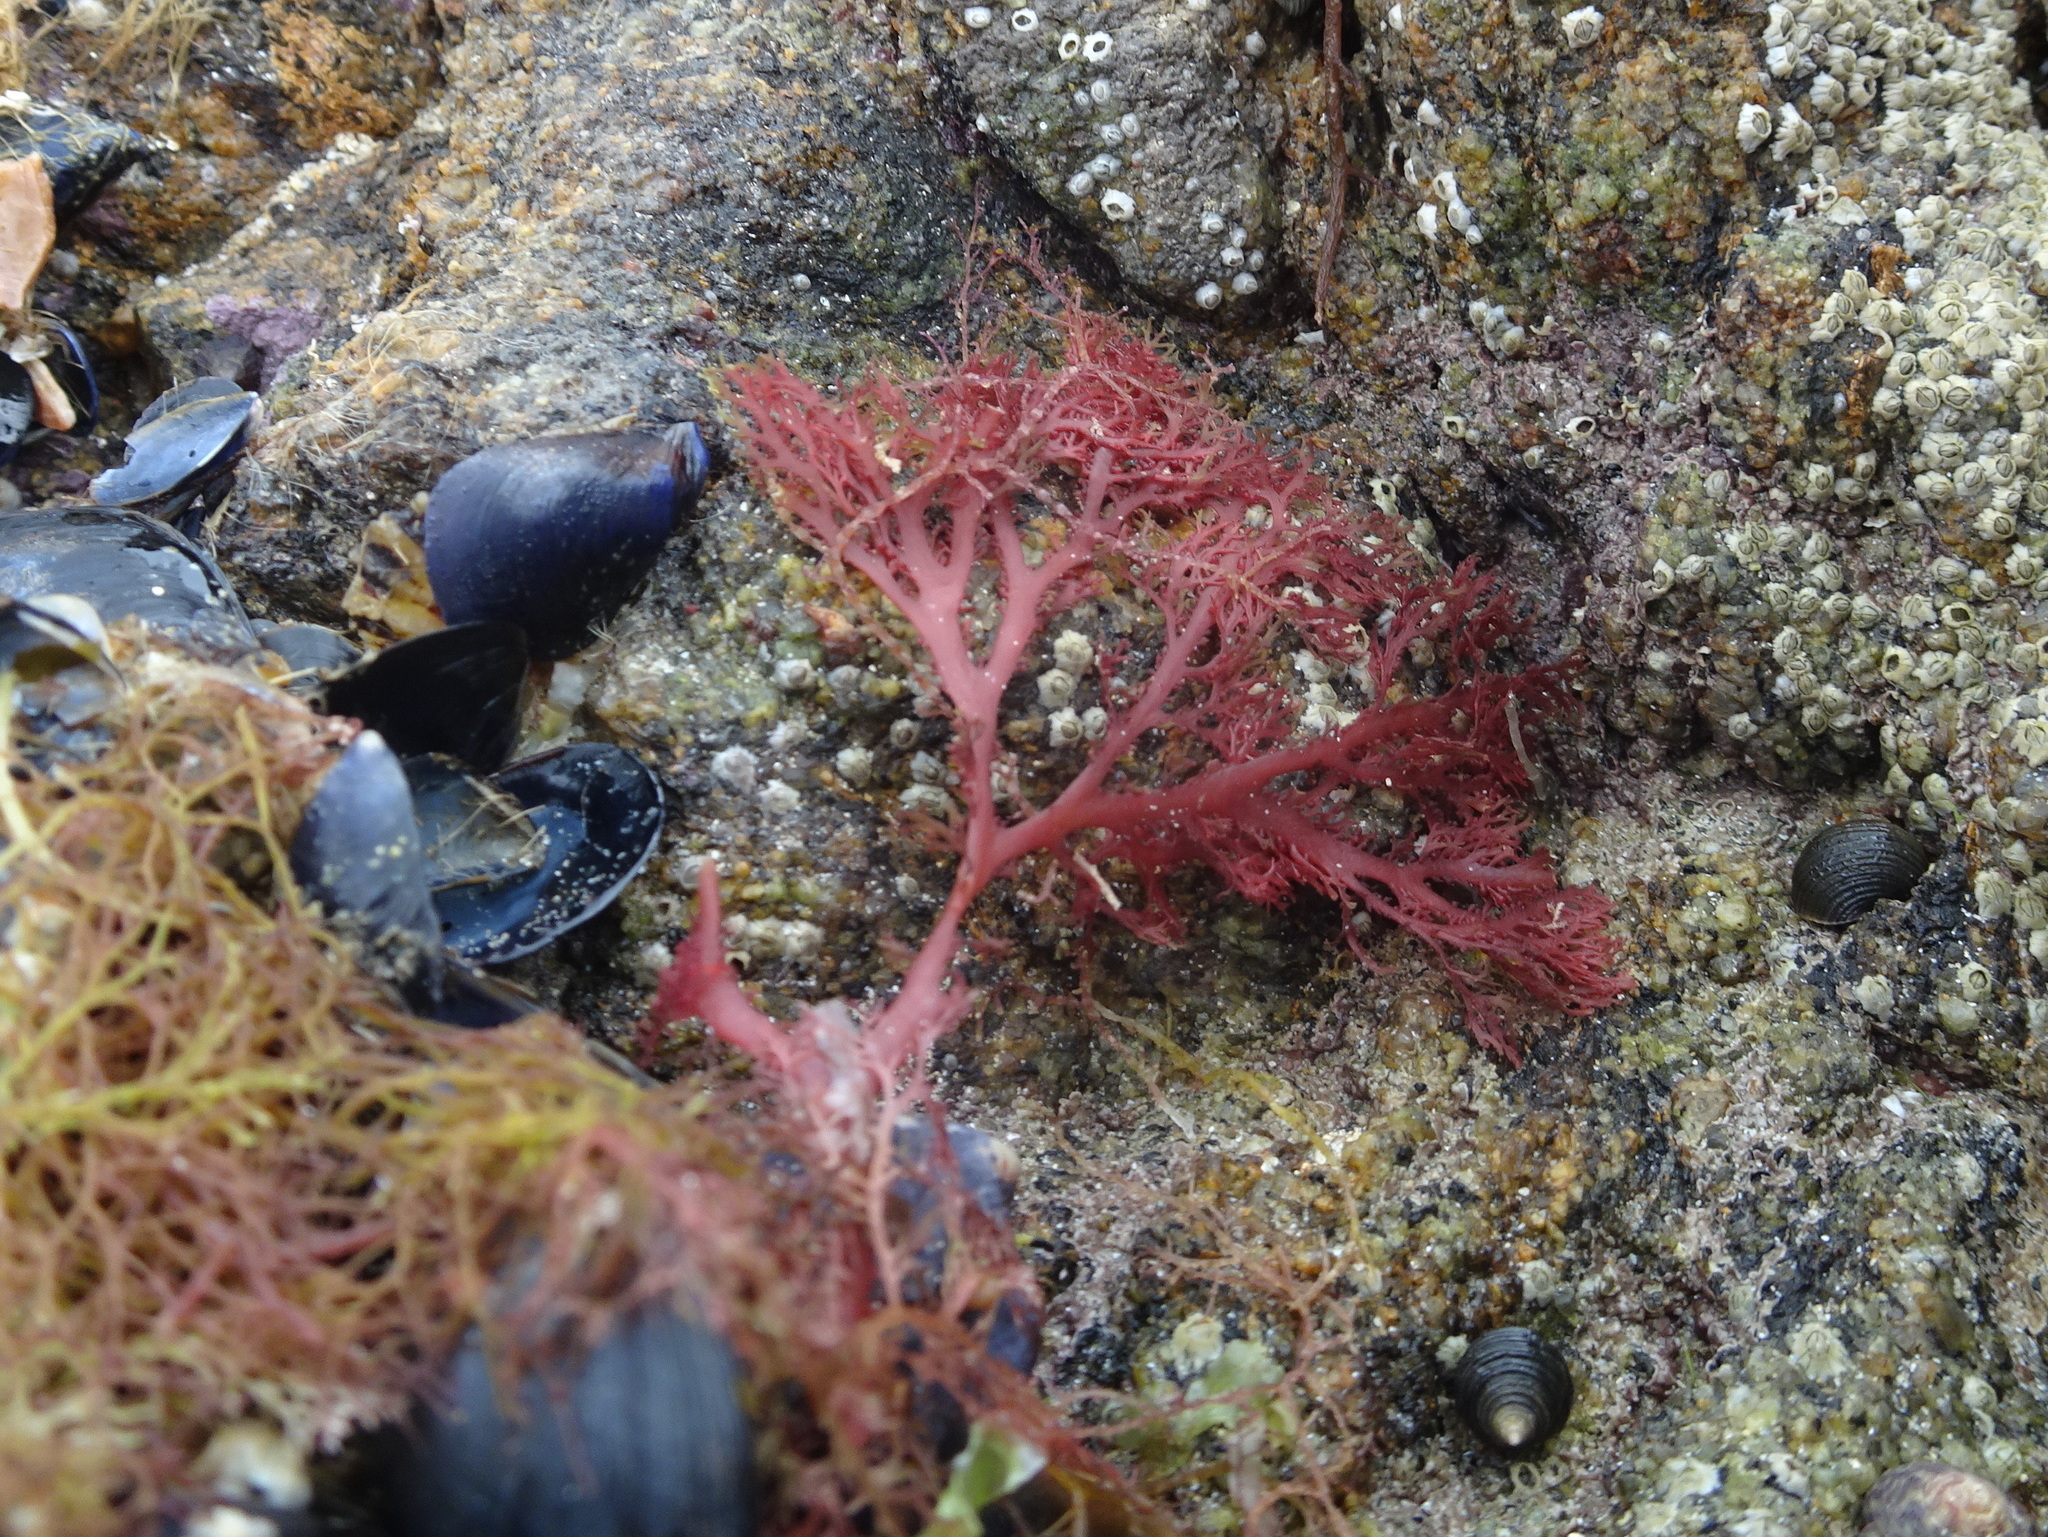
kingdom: Plantae
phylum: Rhodophyta
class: Florideophyceae
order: Plocamiales
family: Plocamiaceae
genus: Plocamium
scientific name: Plocamium cartilagineum
